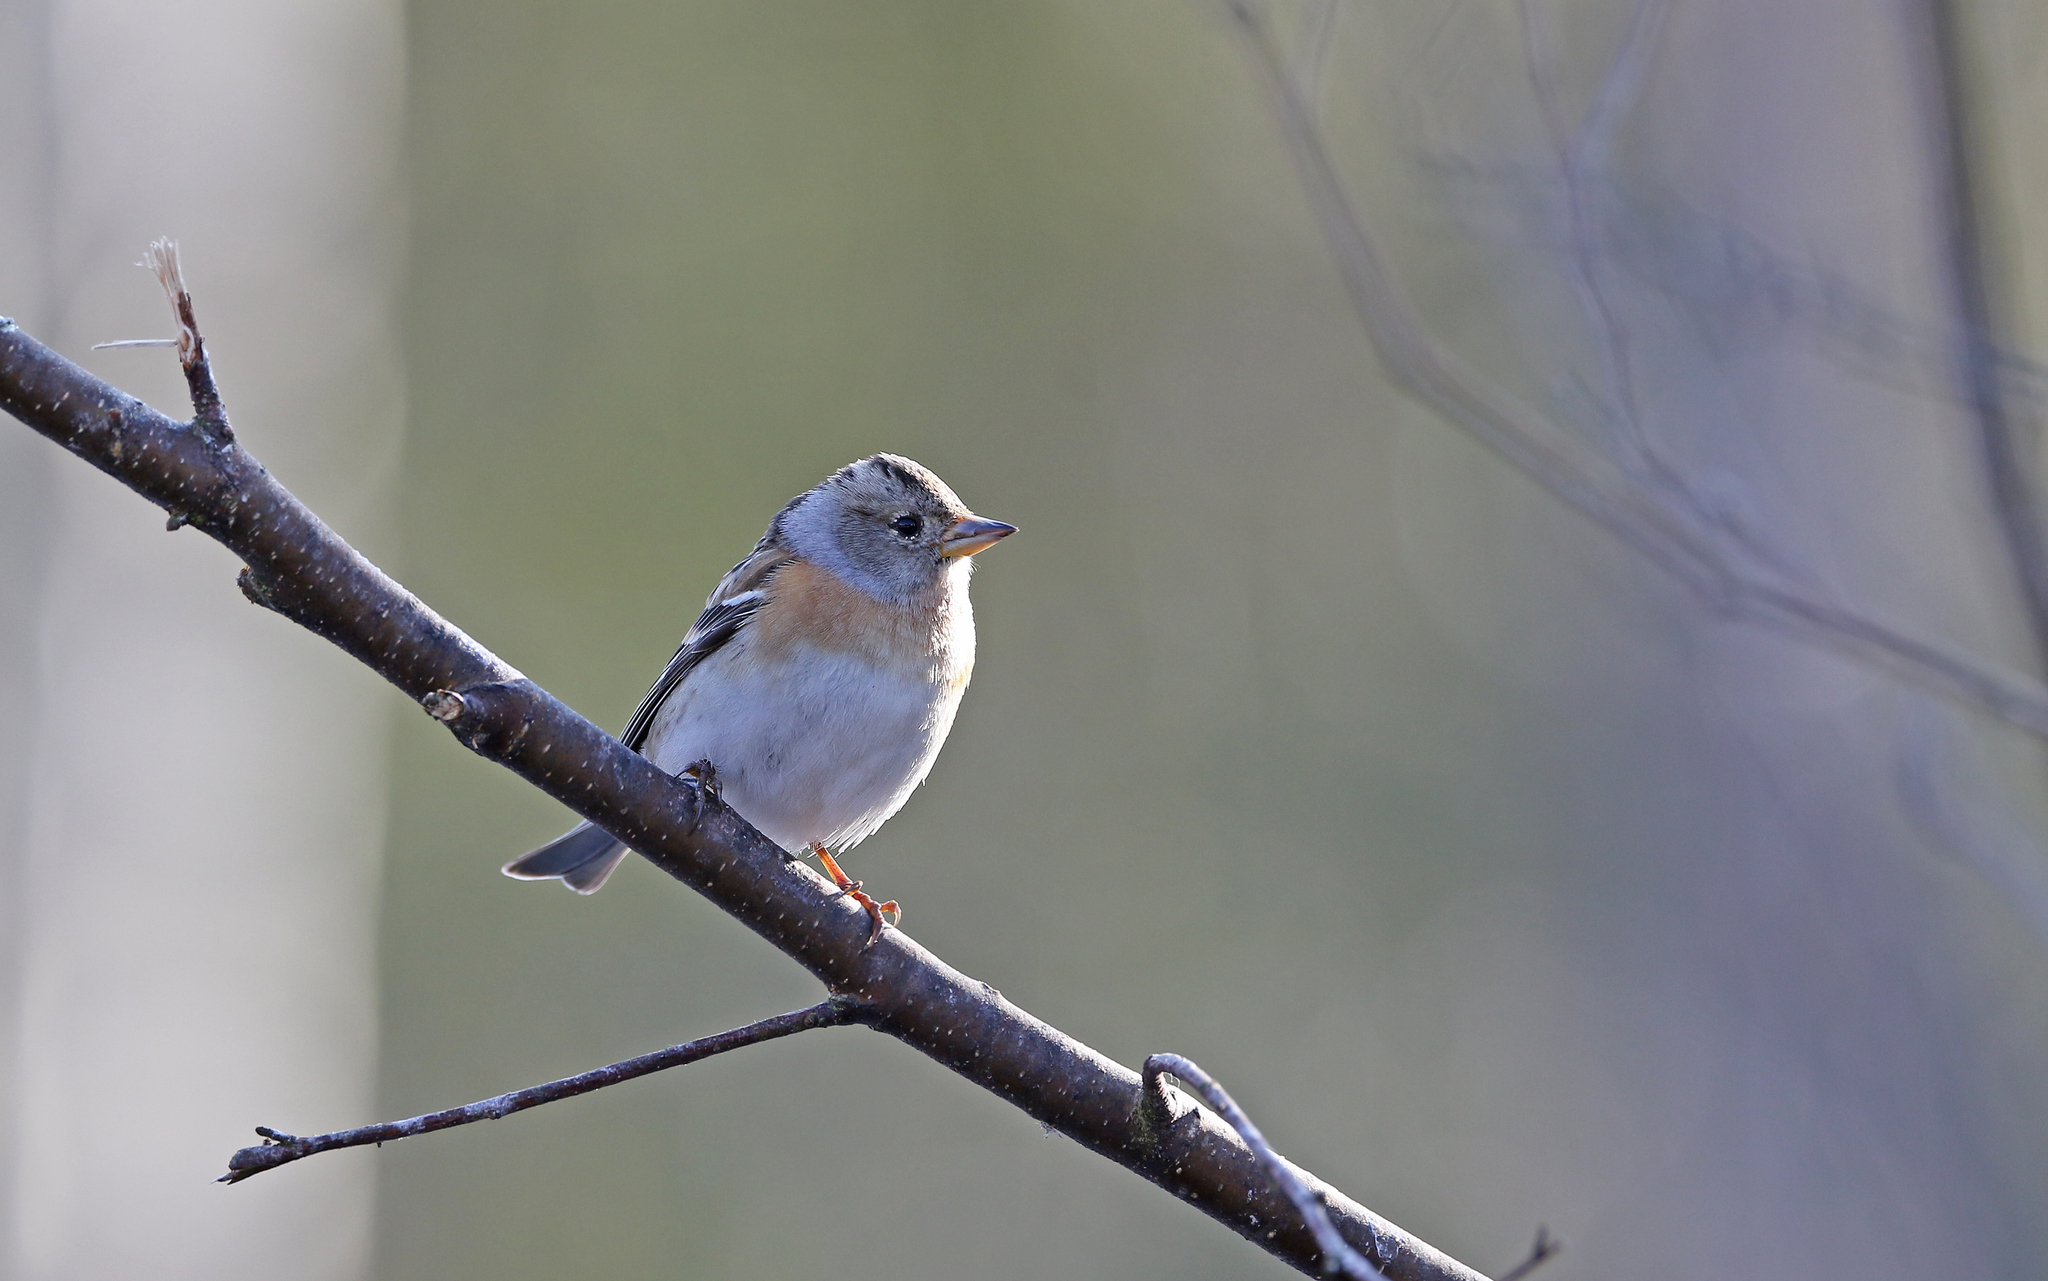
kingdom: Animalia
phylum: Chordata
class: Aves
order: Passeriformes
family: Fringillidae
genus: Fringilla
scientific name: Fringilla montifringilla
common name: Brambling
